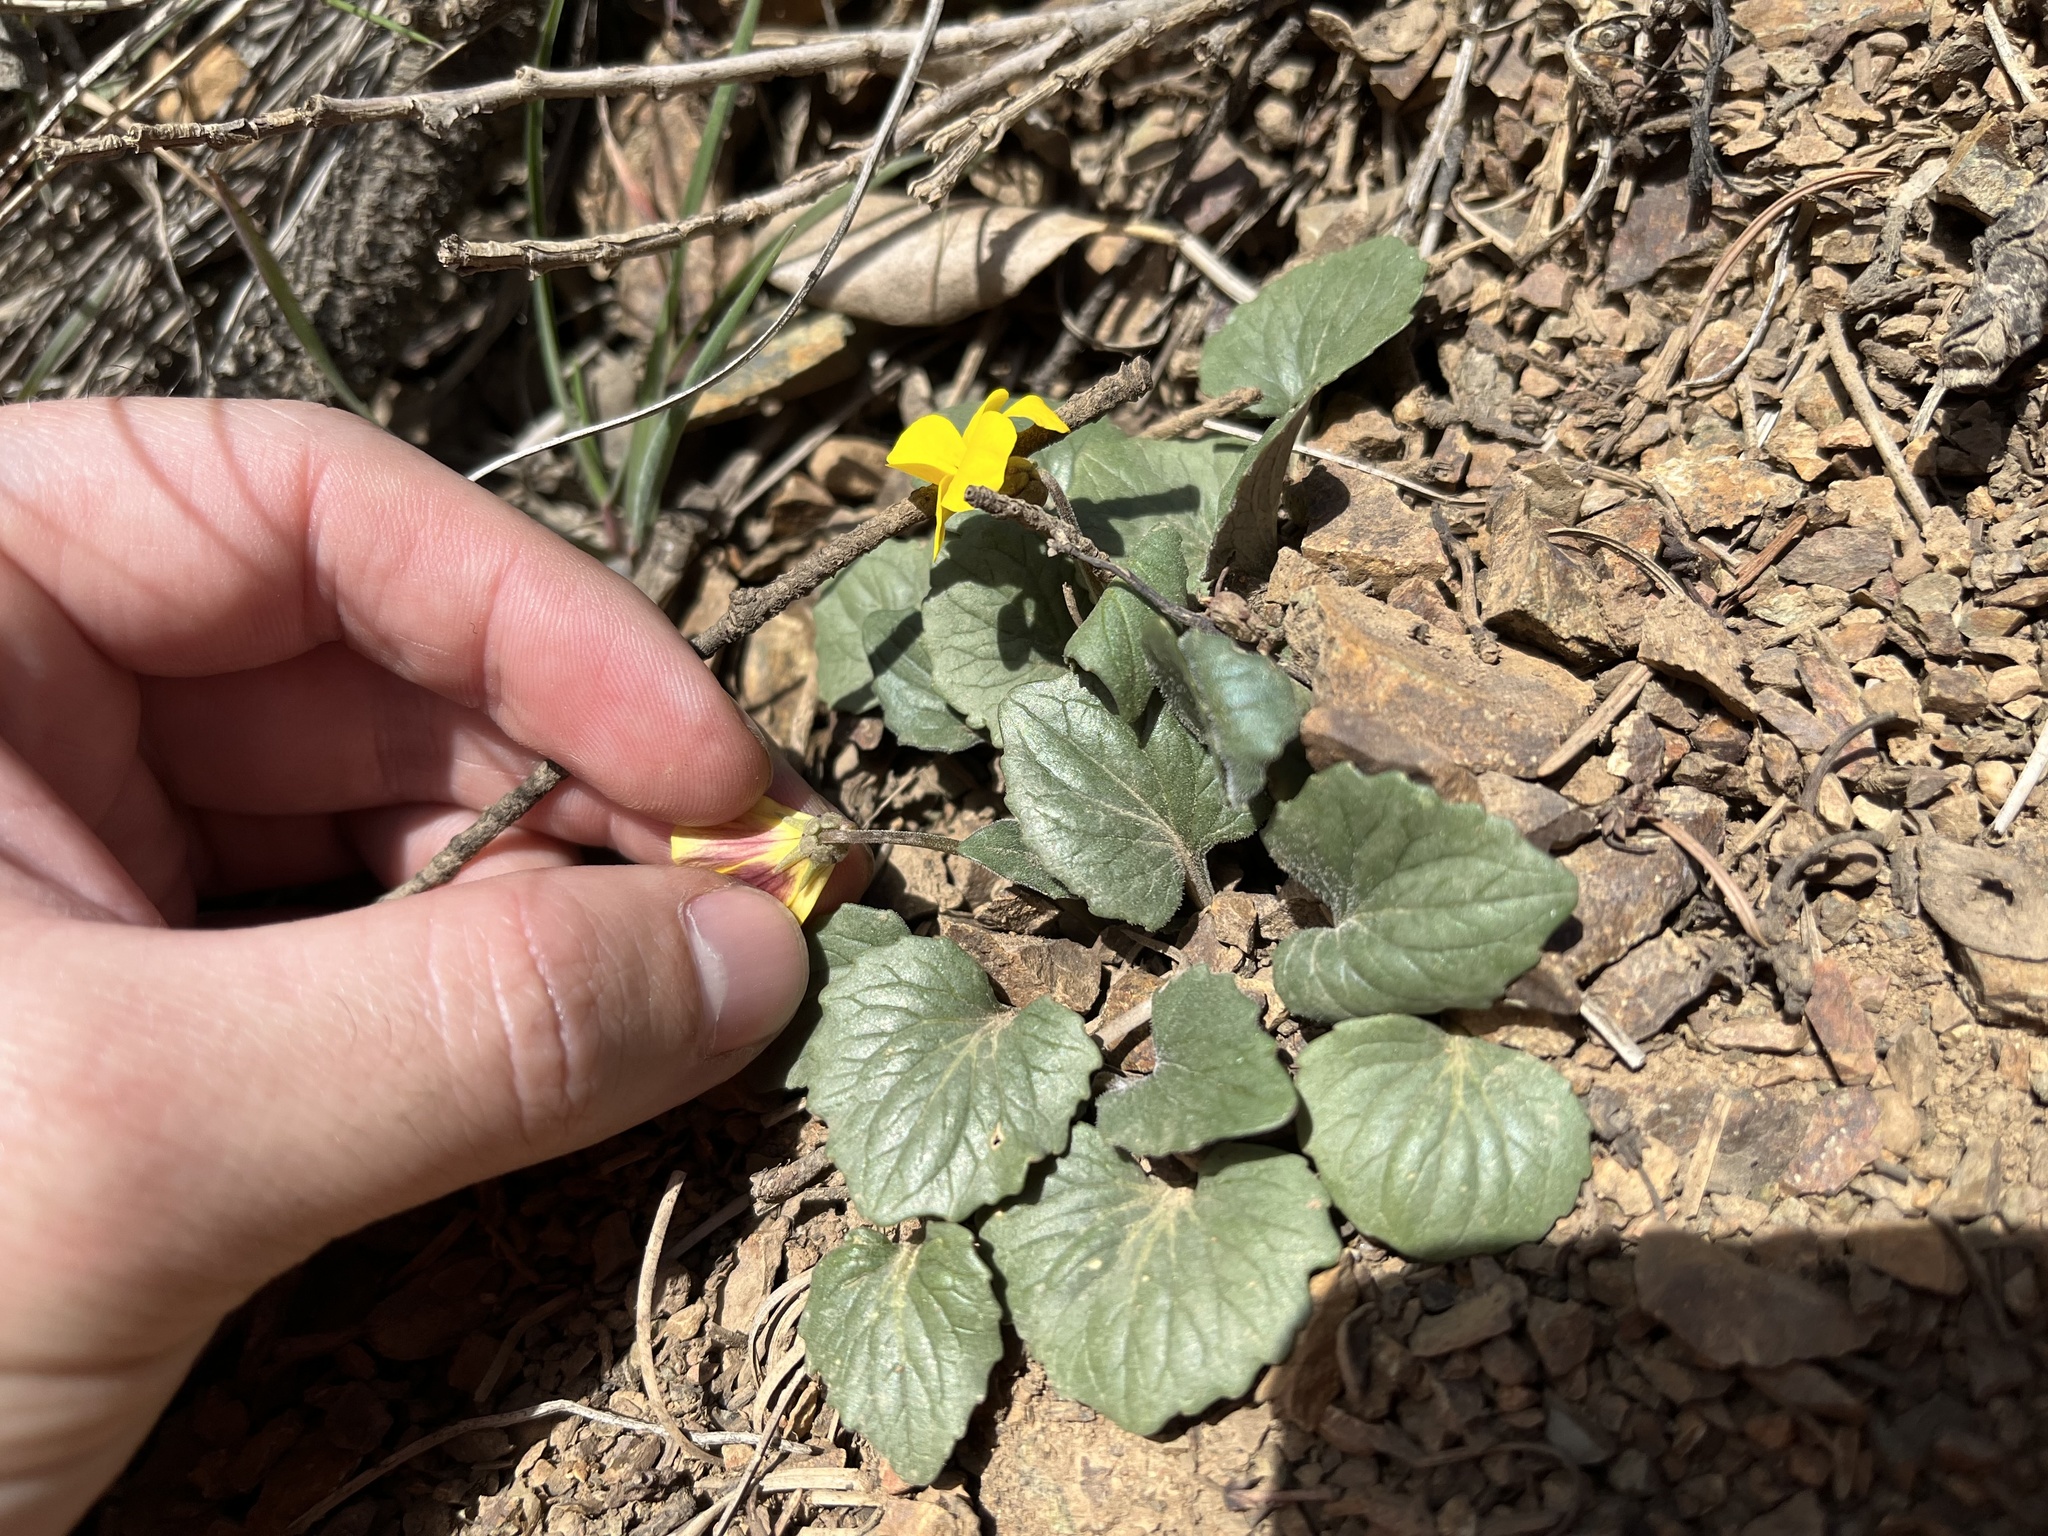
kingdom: Plantae
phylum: Tracheophyta
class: Magnoliopsida
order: Malpighiales
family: Violaceae
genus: Viola
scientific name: Viola quercetorum
